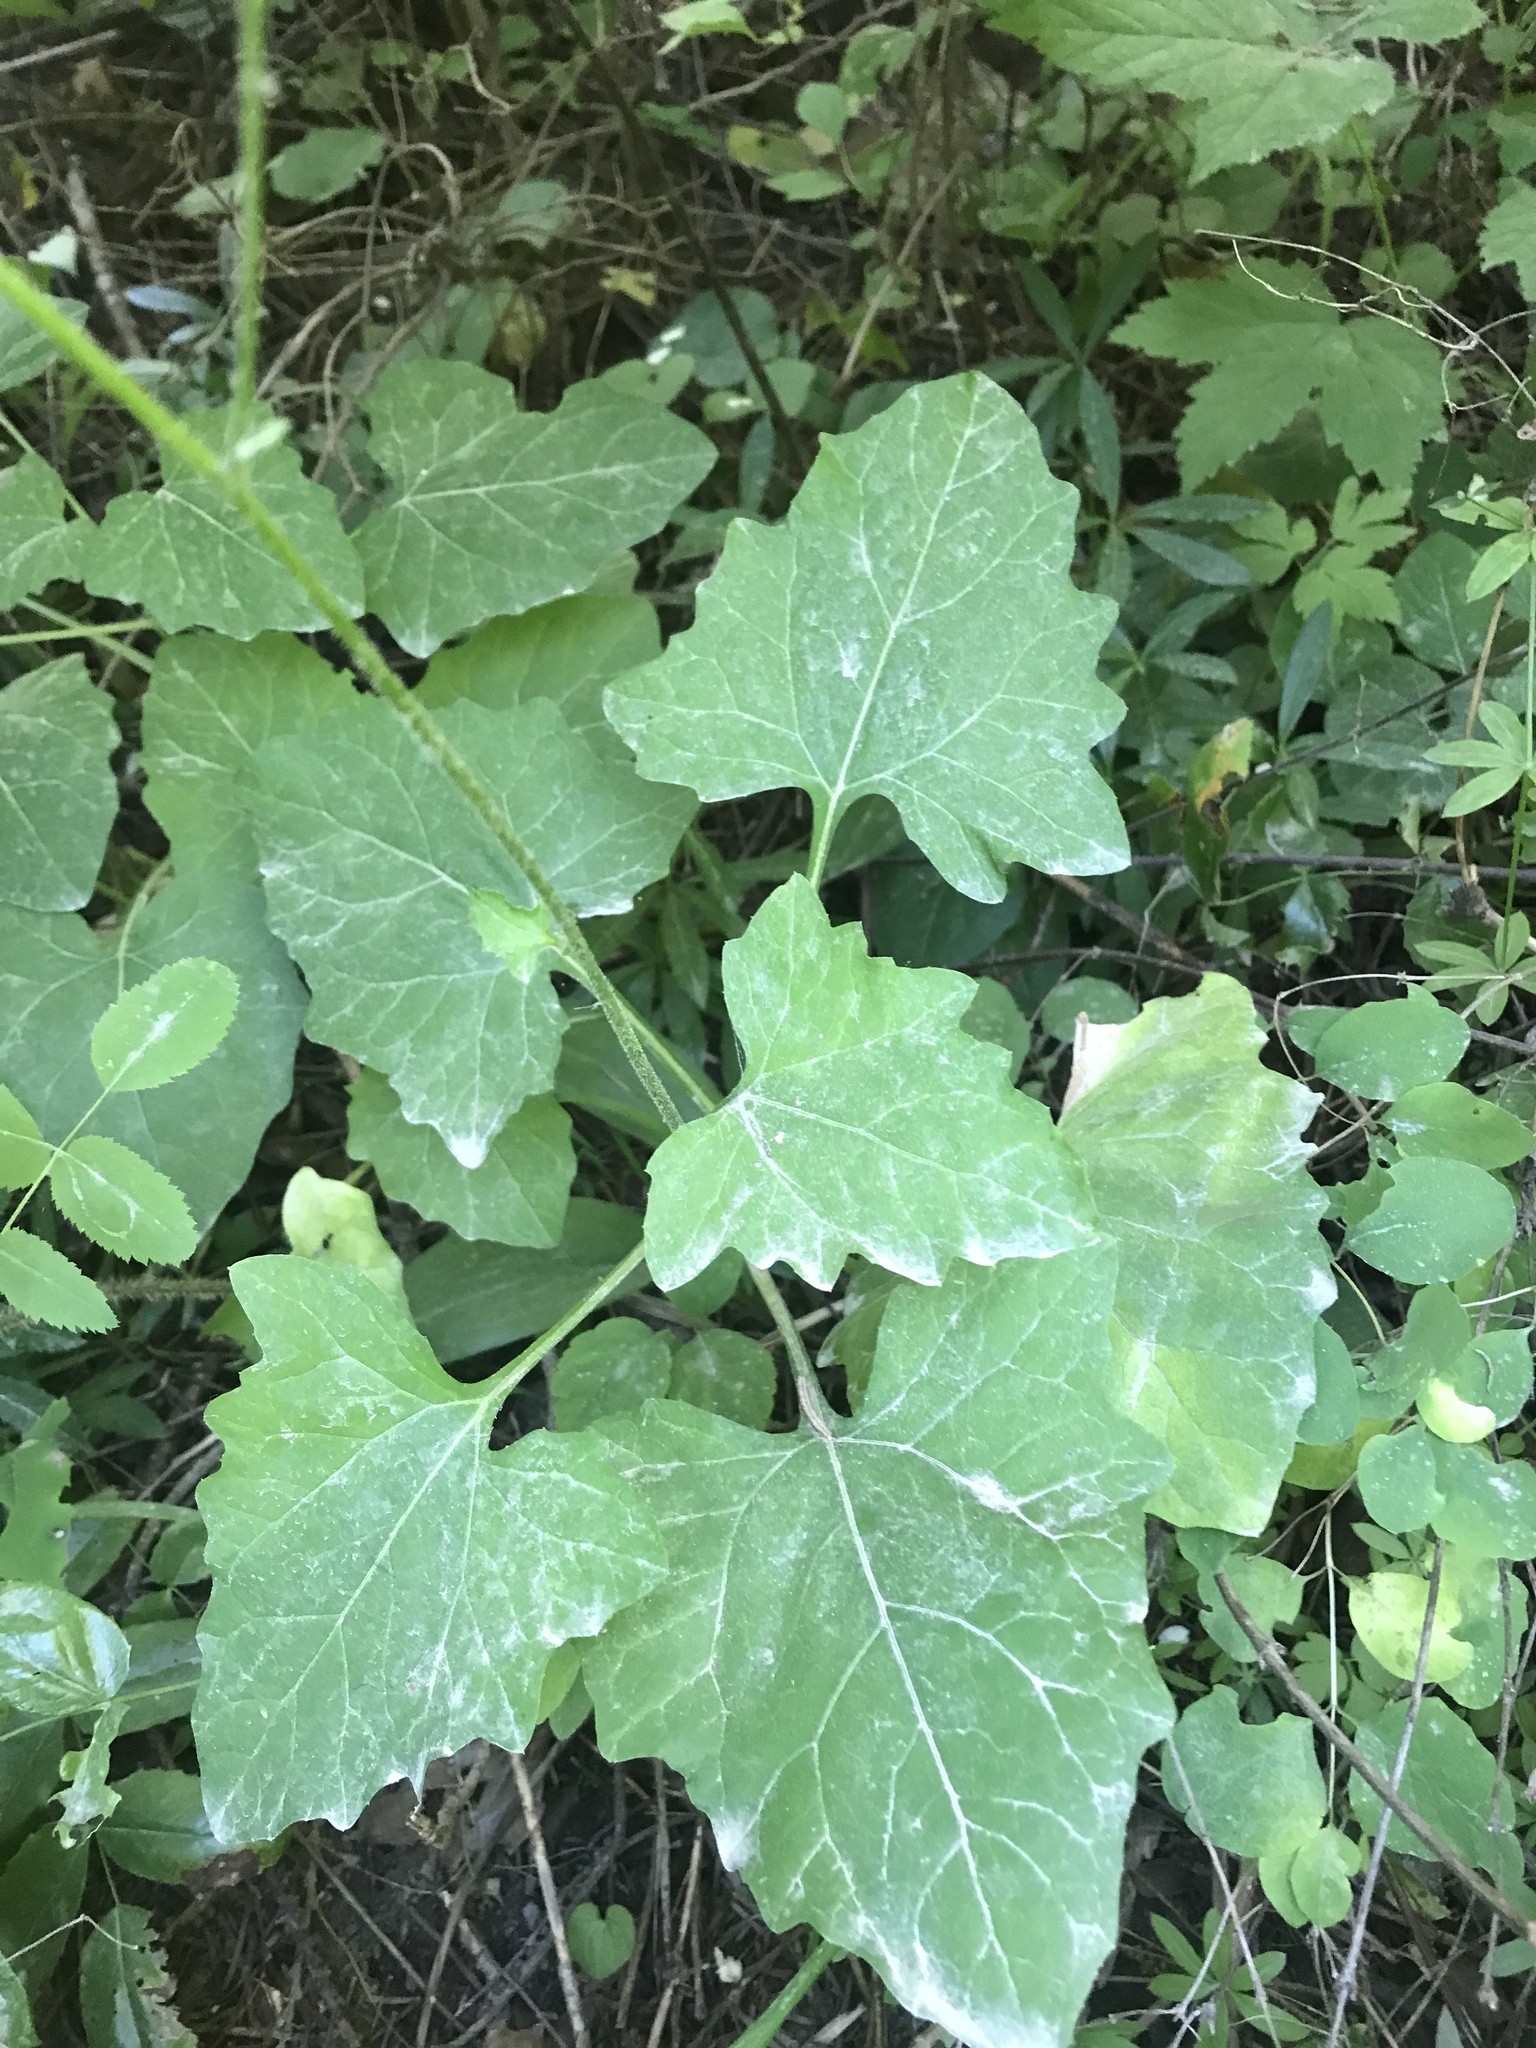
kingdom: Plantae
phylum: Tracheophyta
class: Magnoliopsida
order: Asterales
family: Asteraceae
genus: Adenocaulon
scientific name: Adenocaulon bicolor
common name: Trailplant
